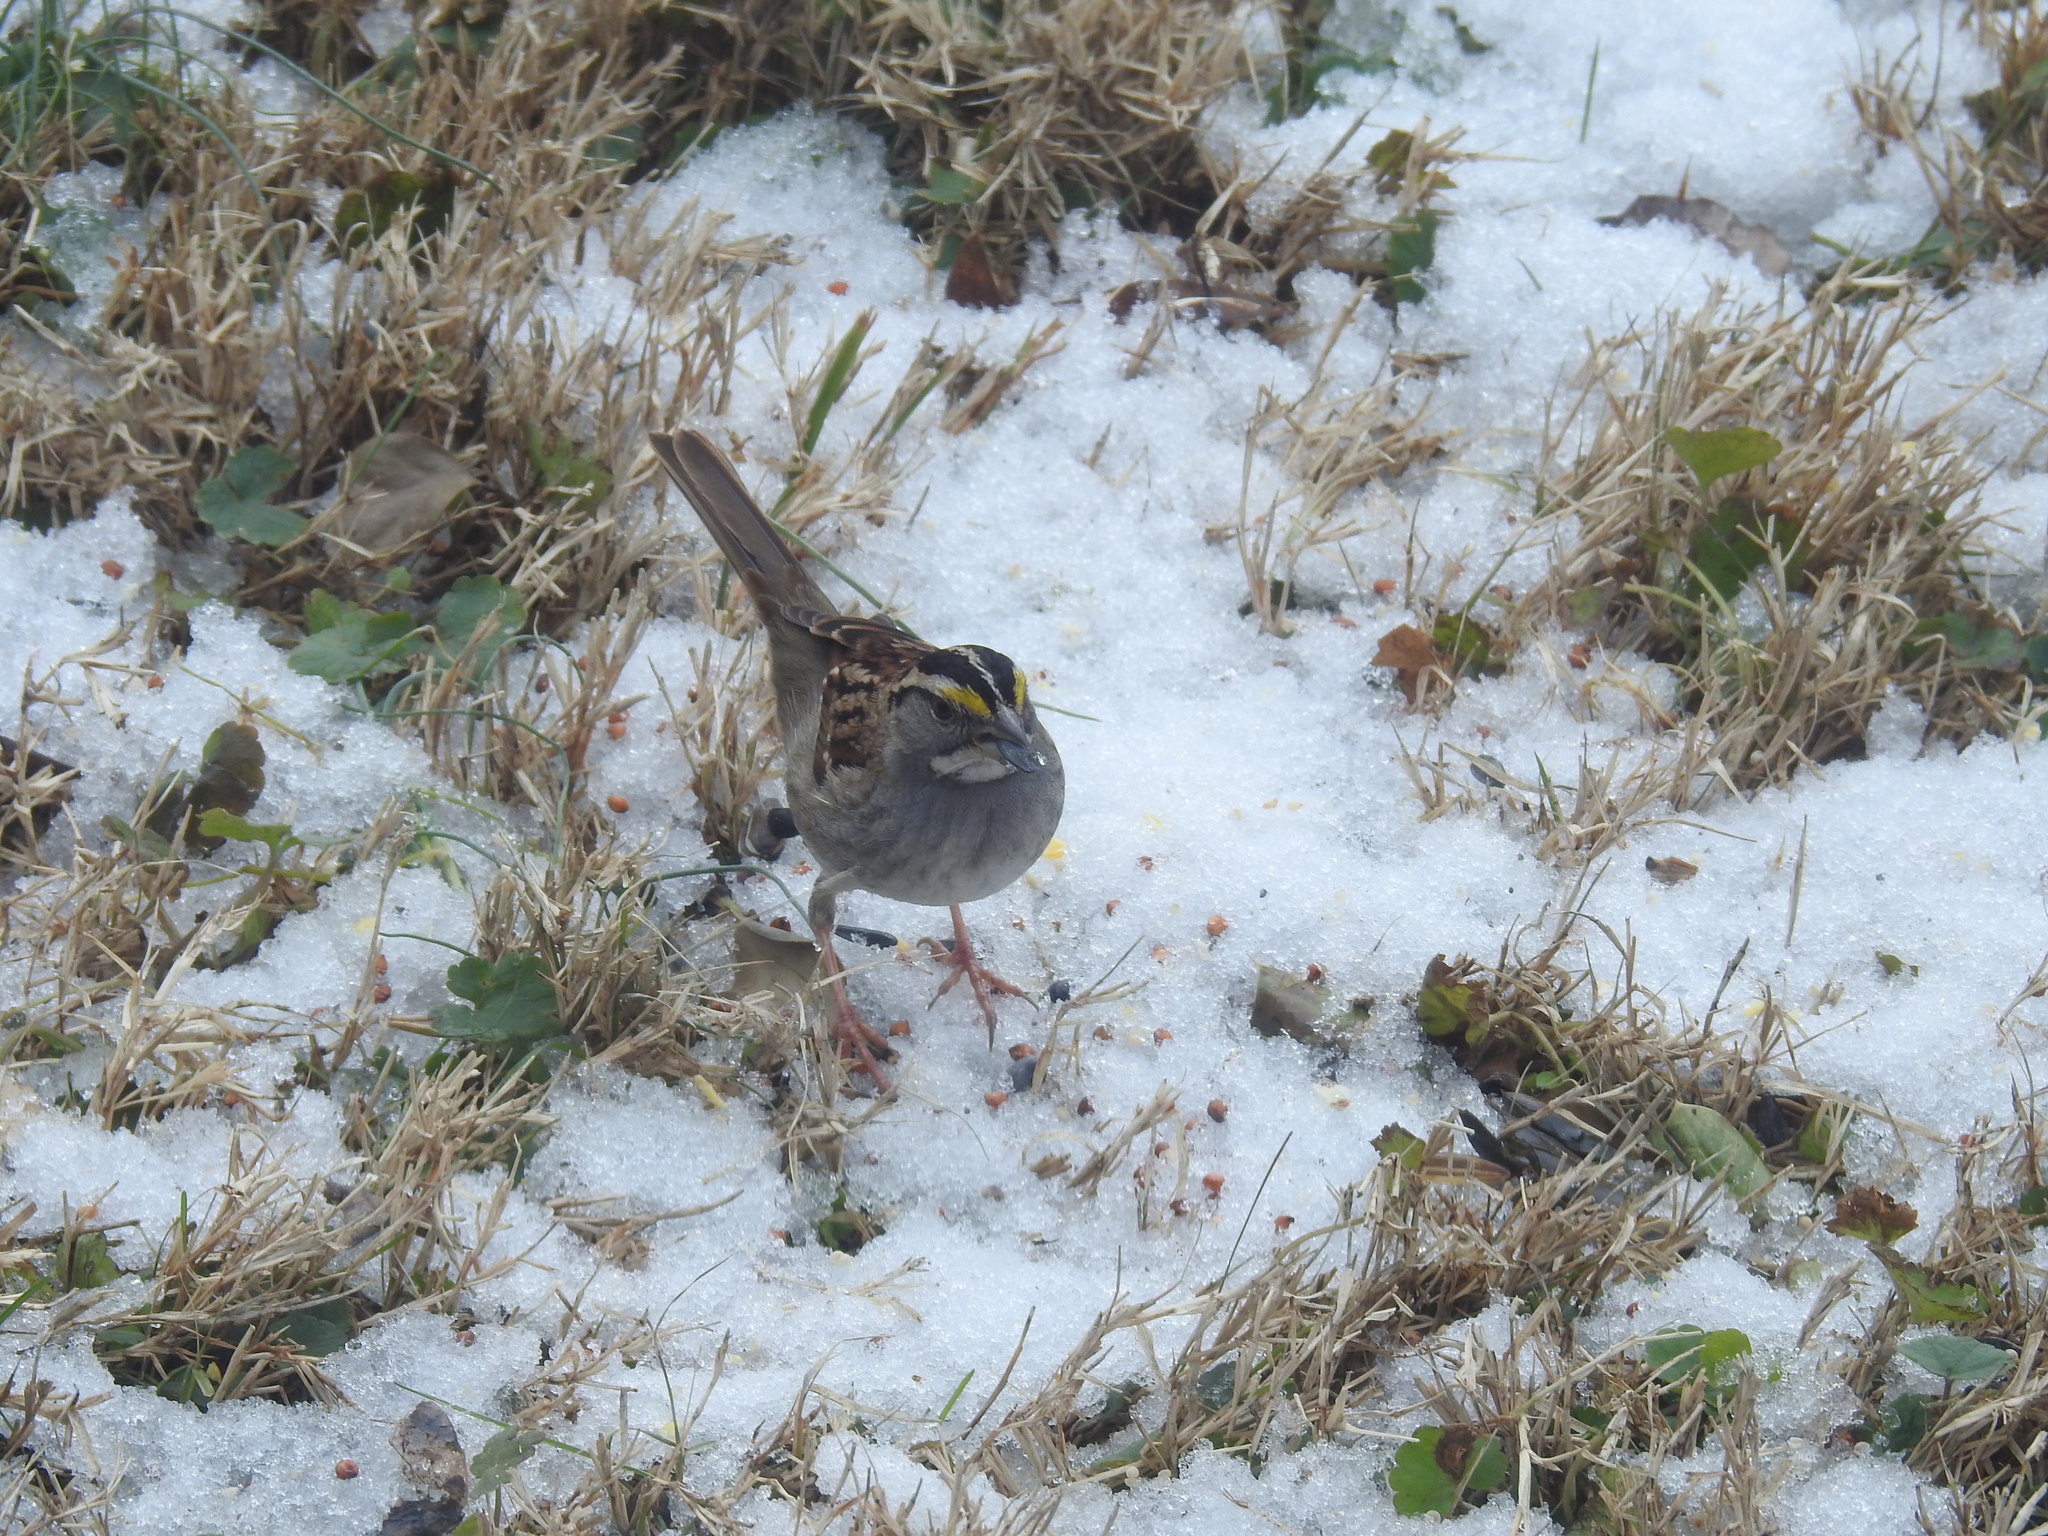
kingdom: Animalia
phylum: Chordata
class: Aves
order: Passeriformes
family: Passerellidae
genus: Zonotrichia
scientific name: Zonotrichia albicollis
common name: White-throated sparrow
